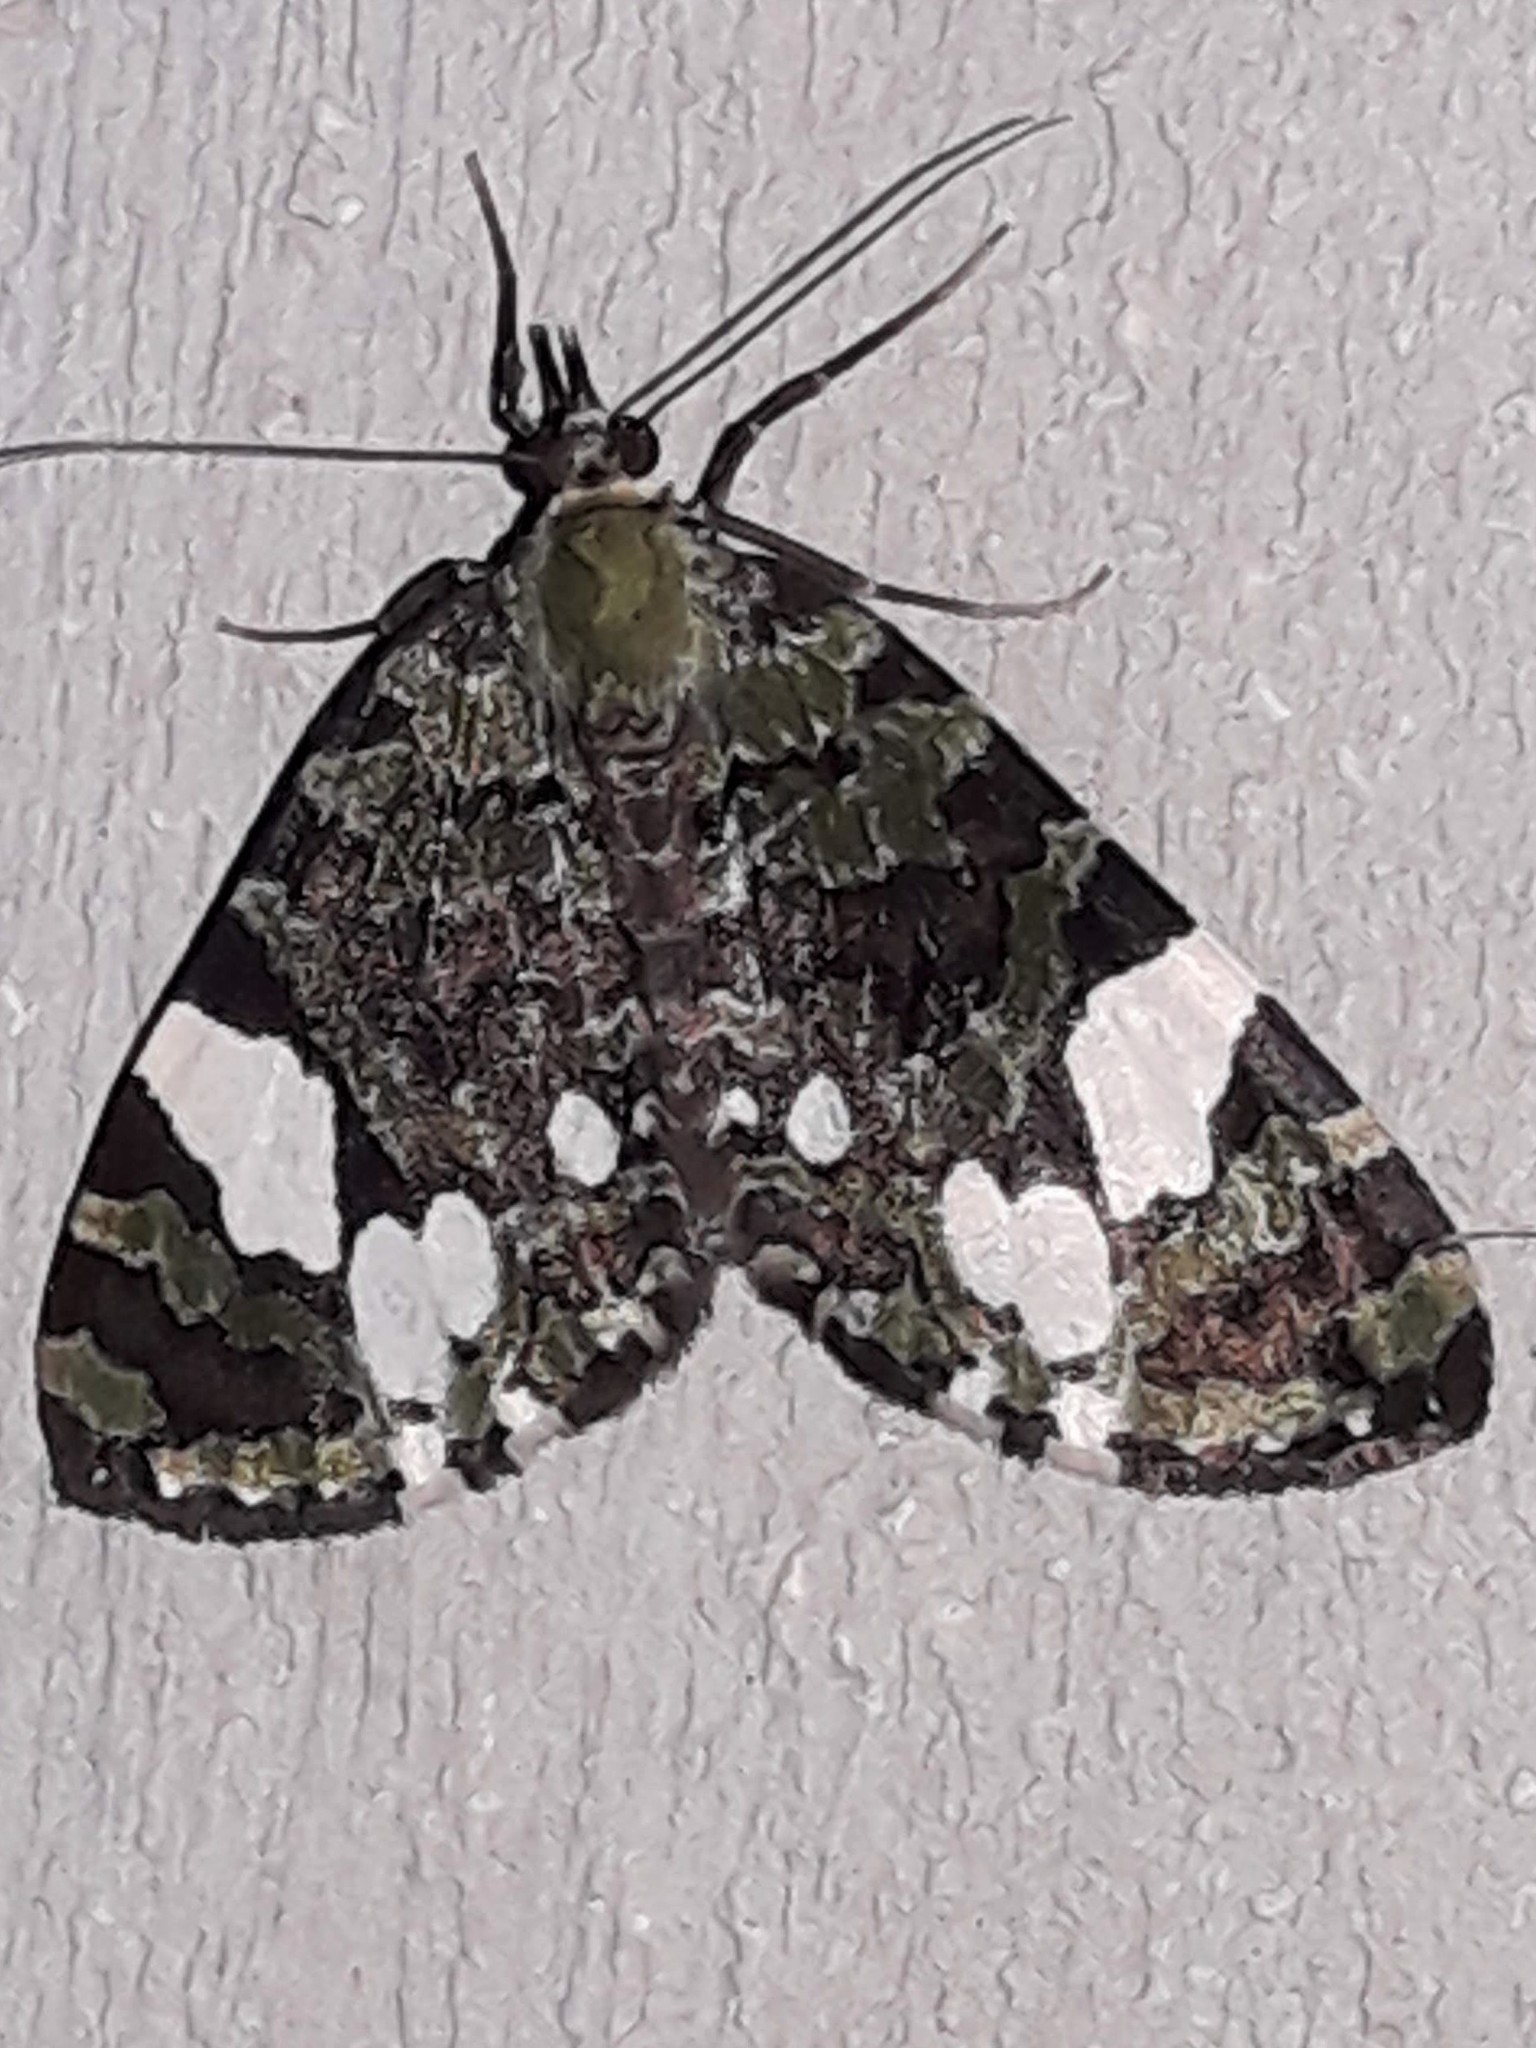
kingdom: Animalia
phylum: Arthropoda
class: Insecta
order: Lepidoptera
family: Geometridae
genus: Hydriomena
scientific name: Hydriomena polyphonta
